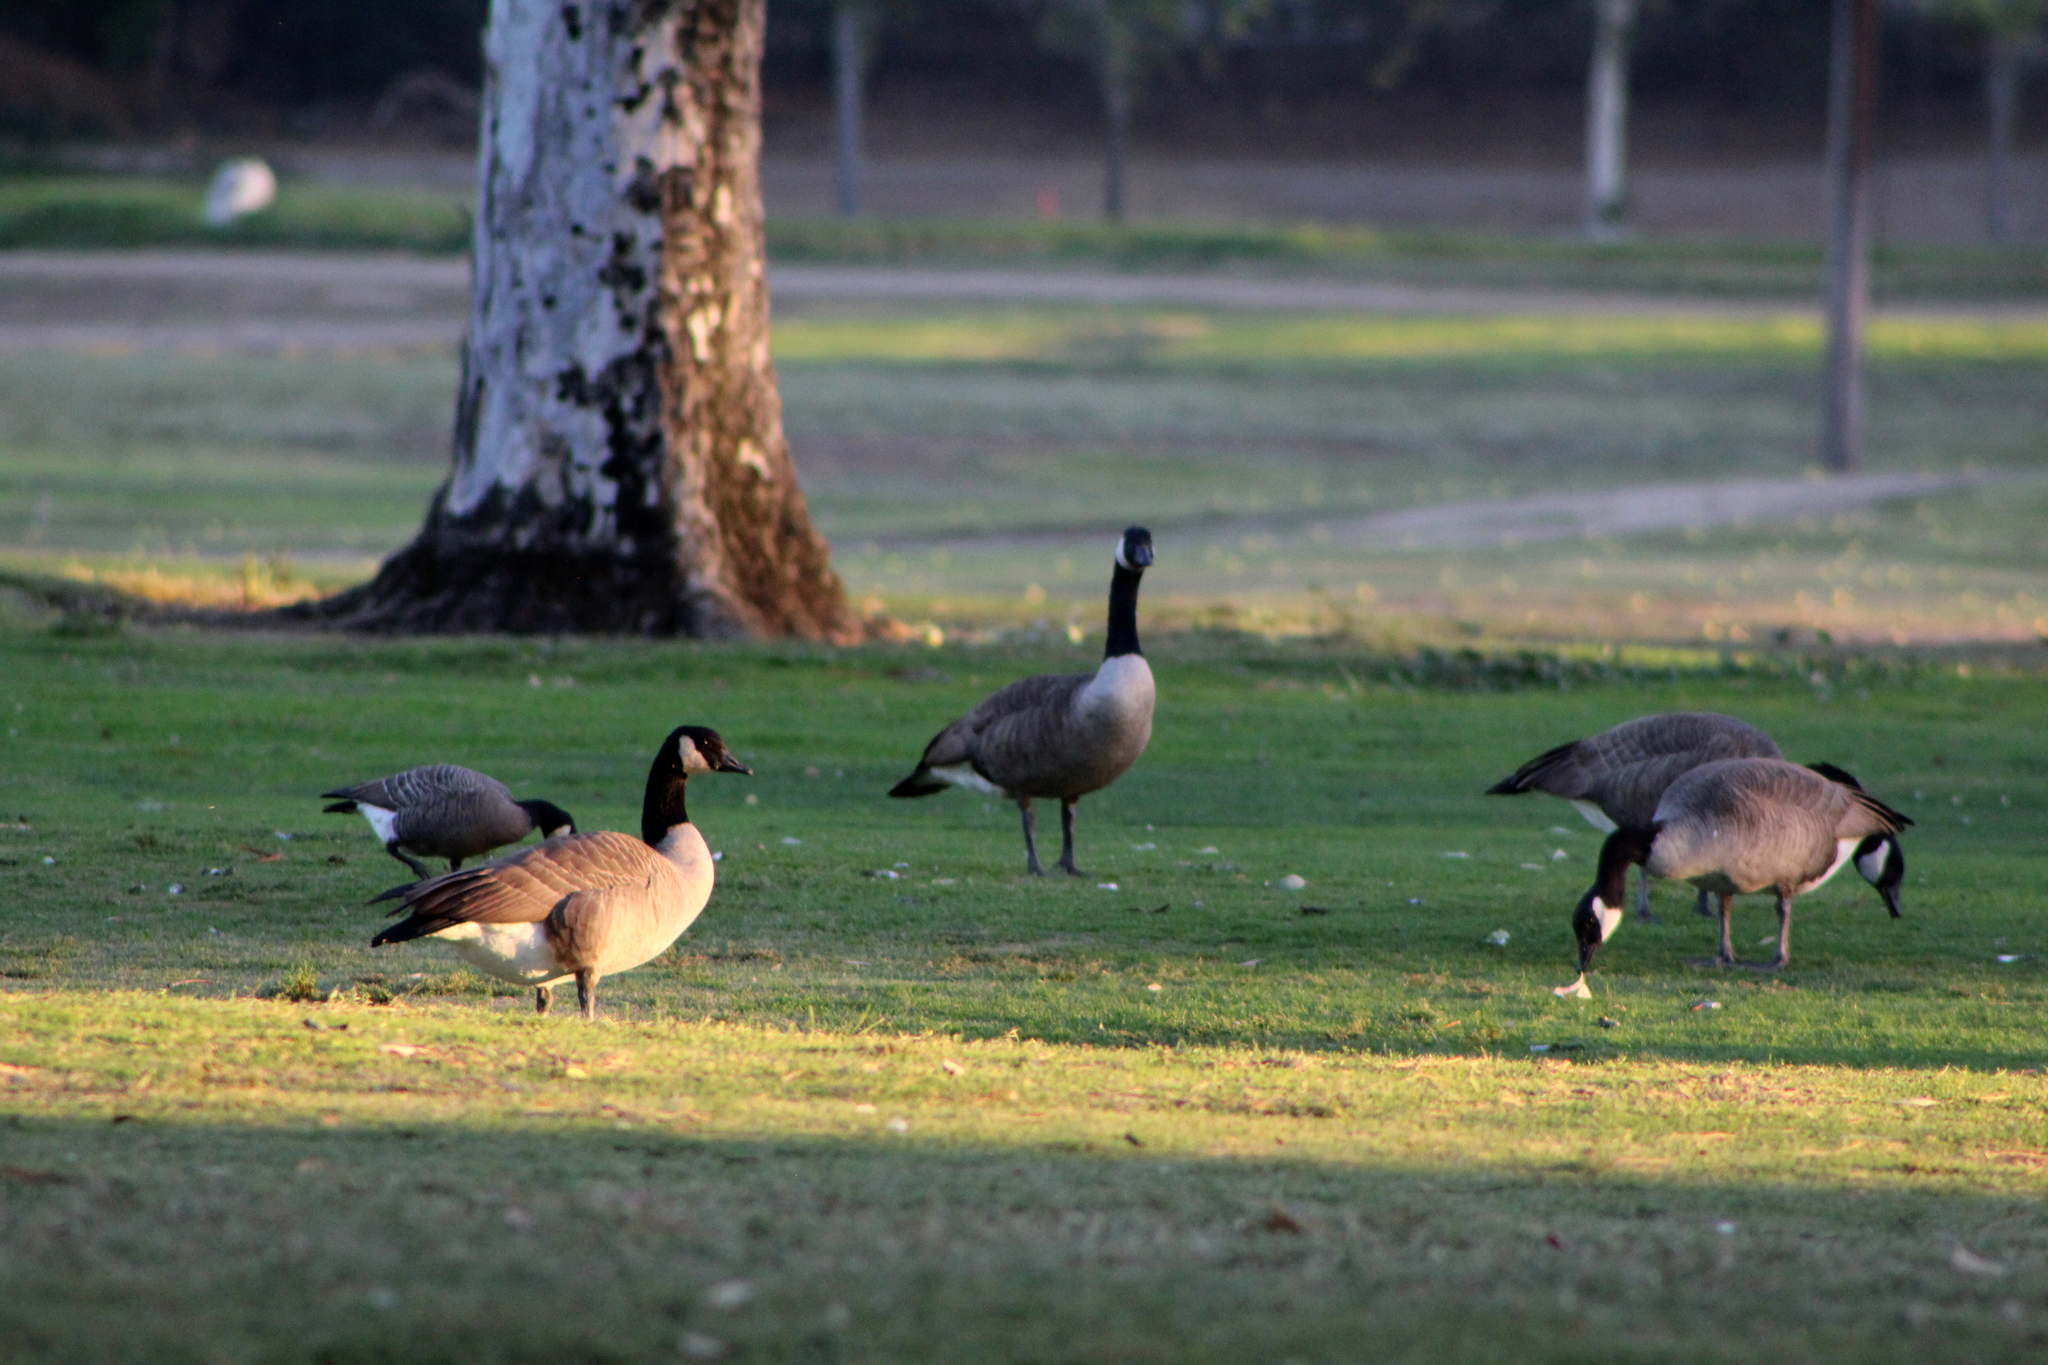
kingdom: Animalia
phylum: Chordata
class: Aves
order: Anseriformes
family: Anatidae
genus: Branta
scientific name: Branta canadensis
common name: Canada goose
